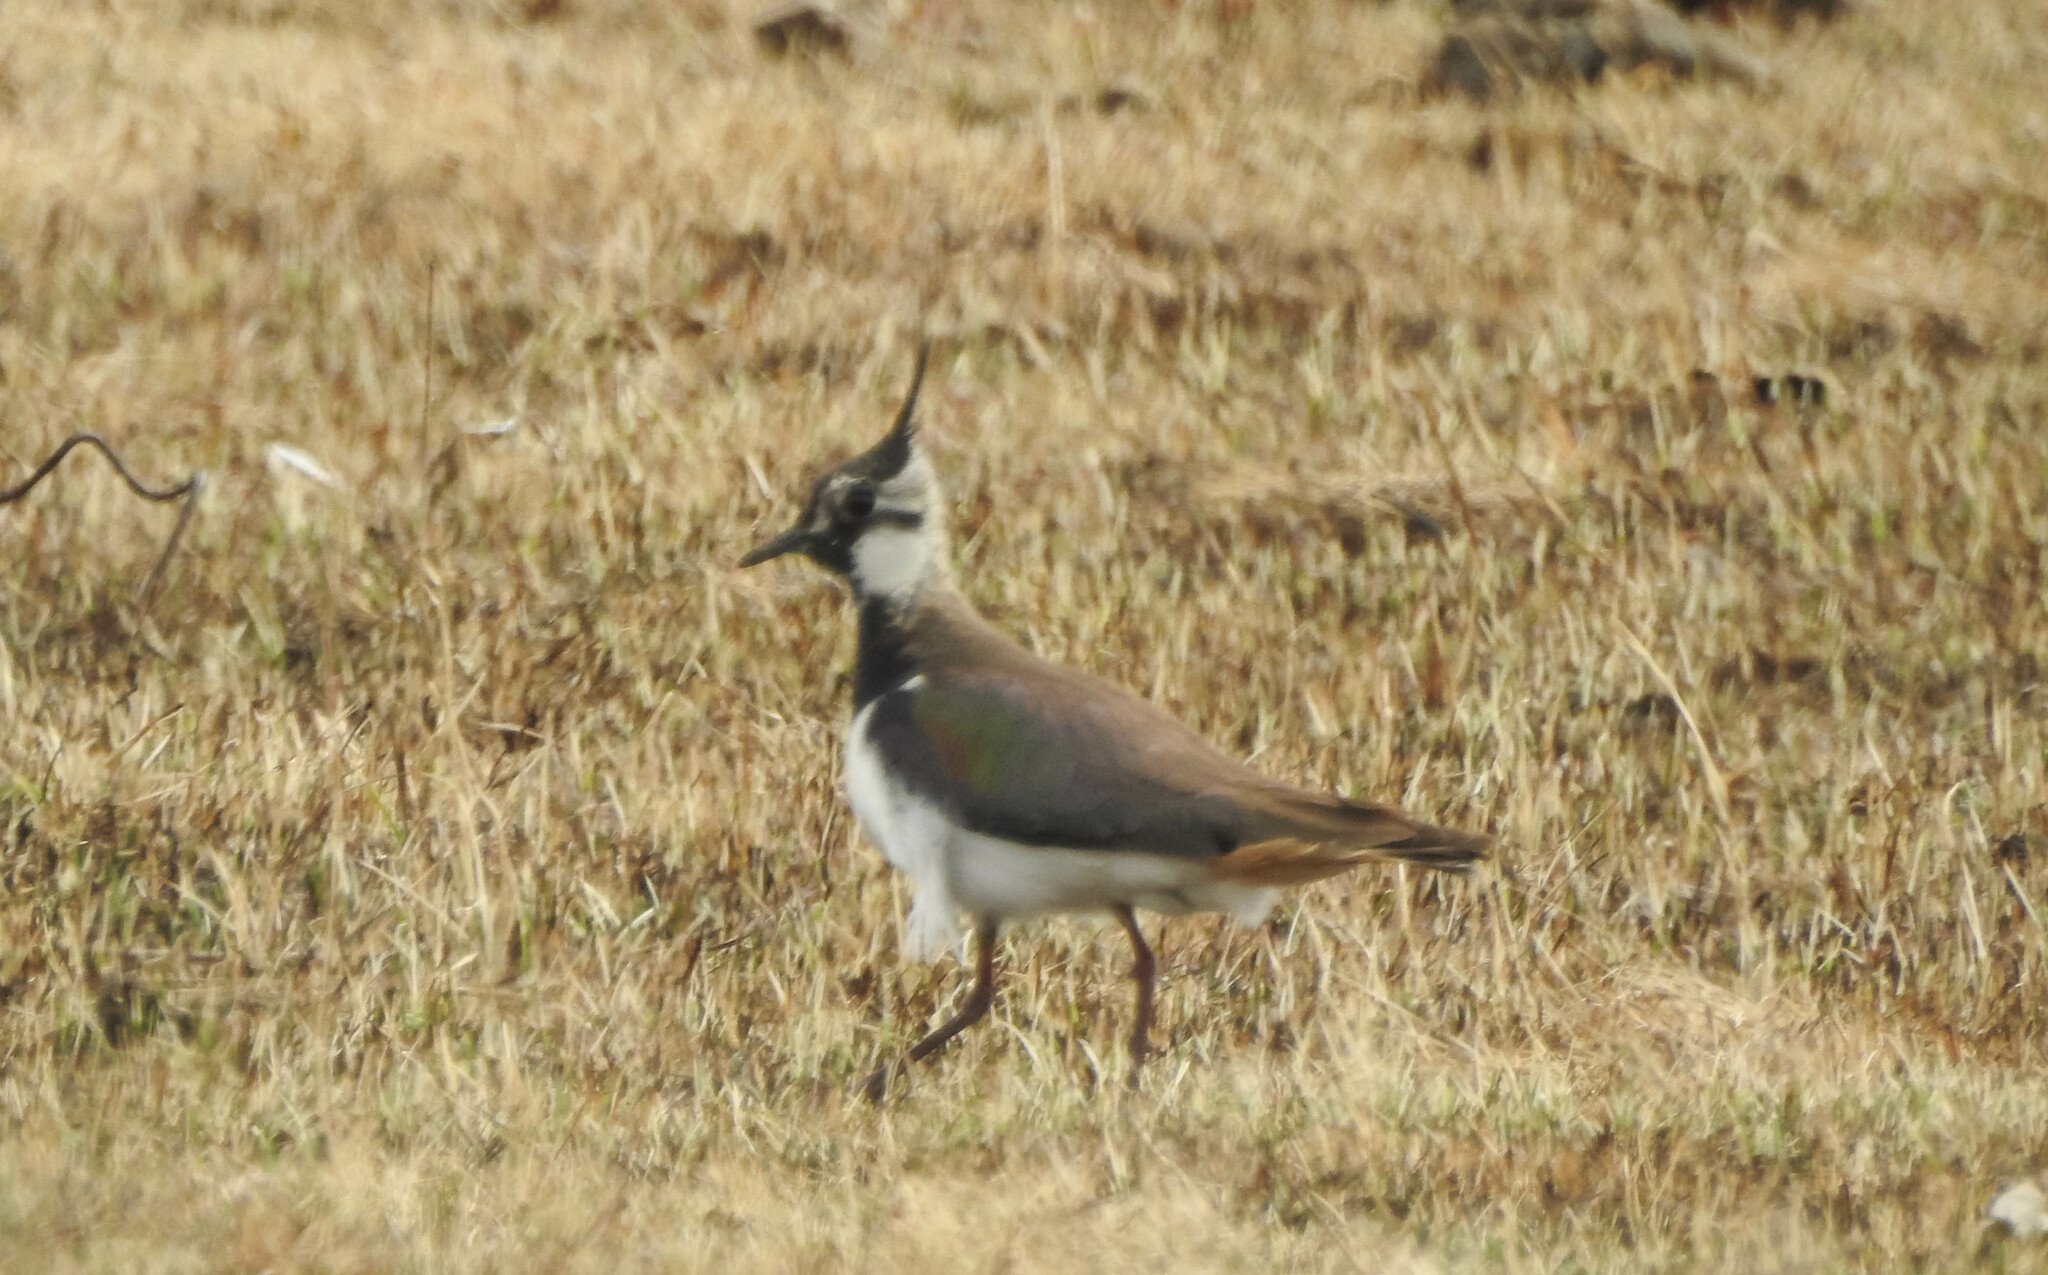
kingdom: Animalia
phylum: Chordata
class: Aves
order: Charadriiformes
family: Charadriidae
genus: Vanellus
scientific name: Vanellus vanellus
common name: Northern lapwing
